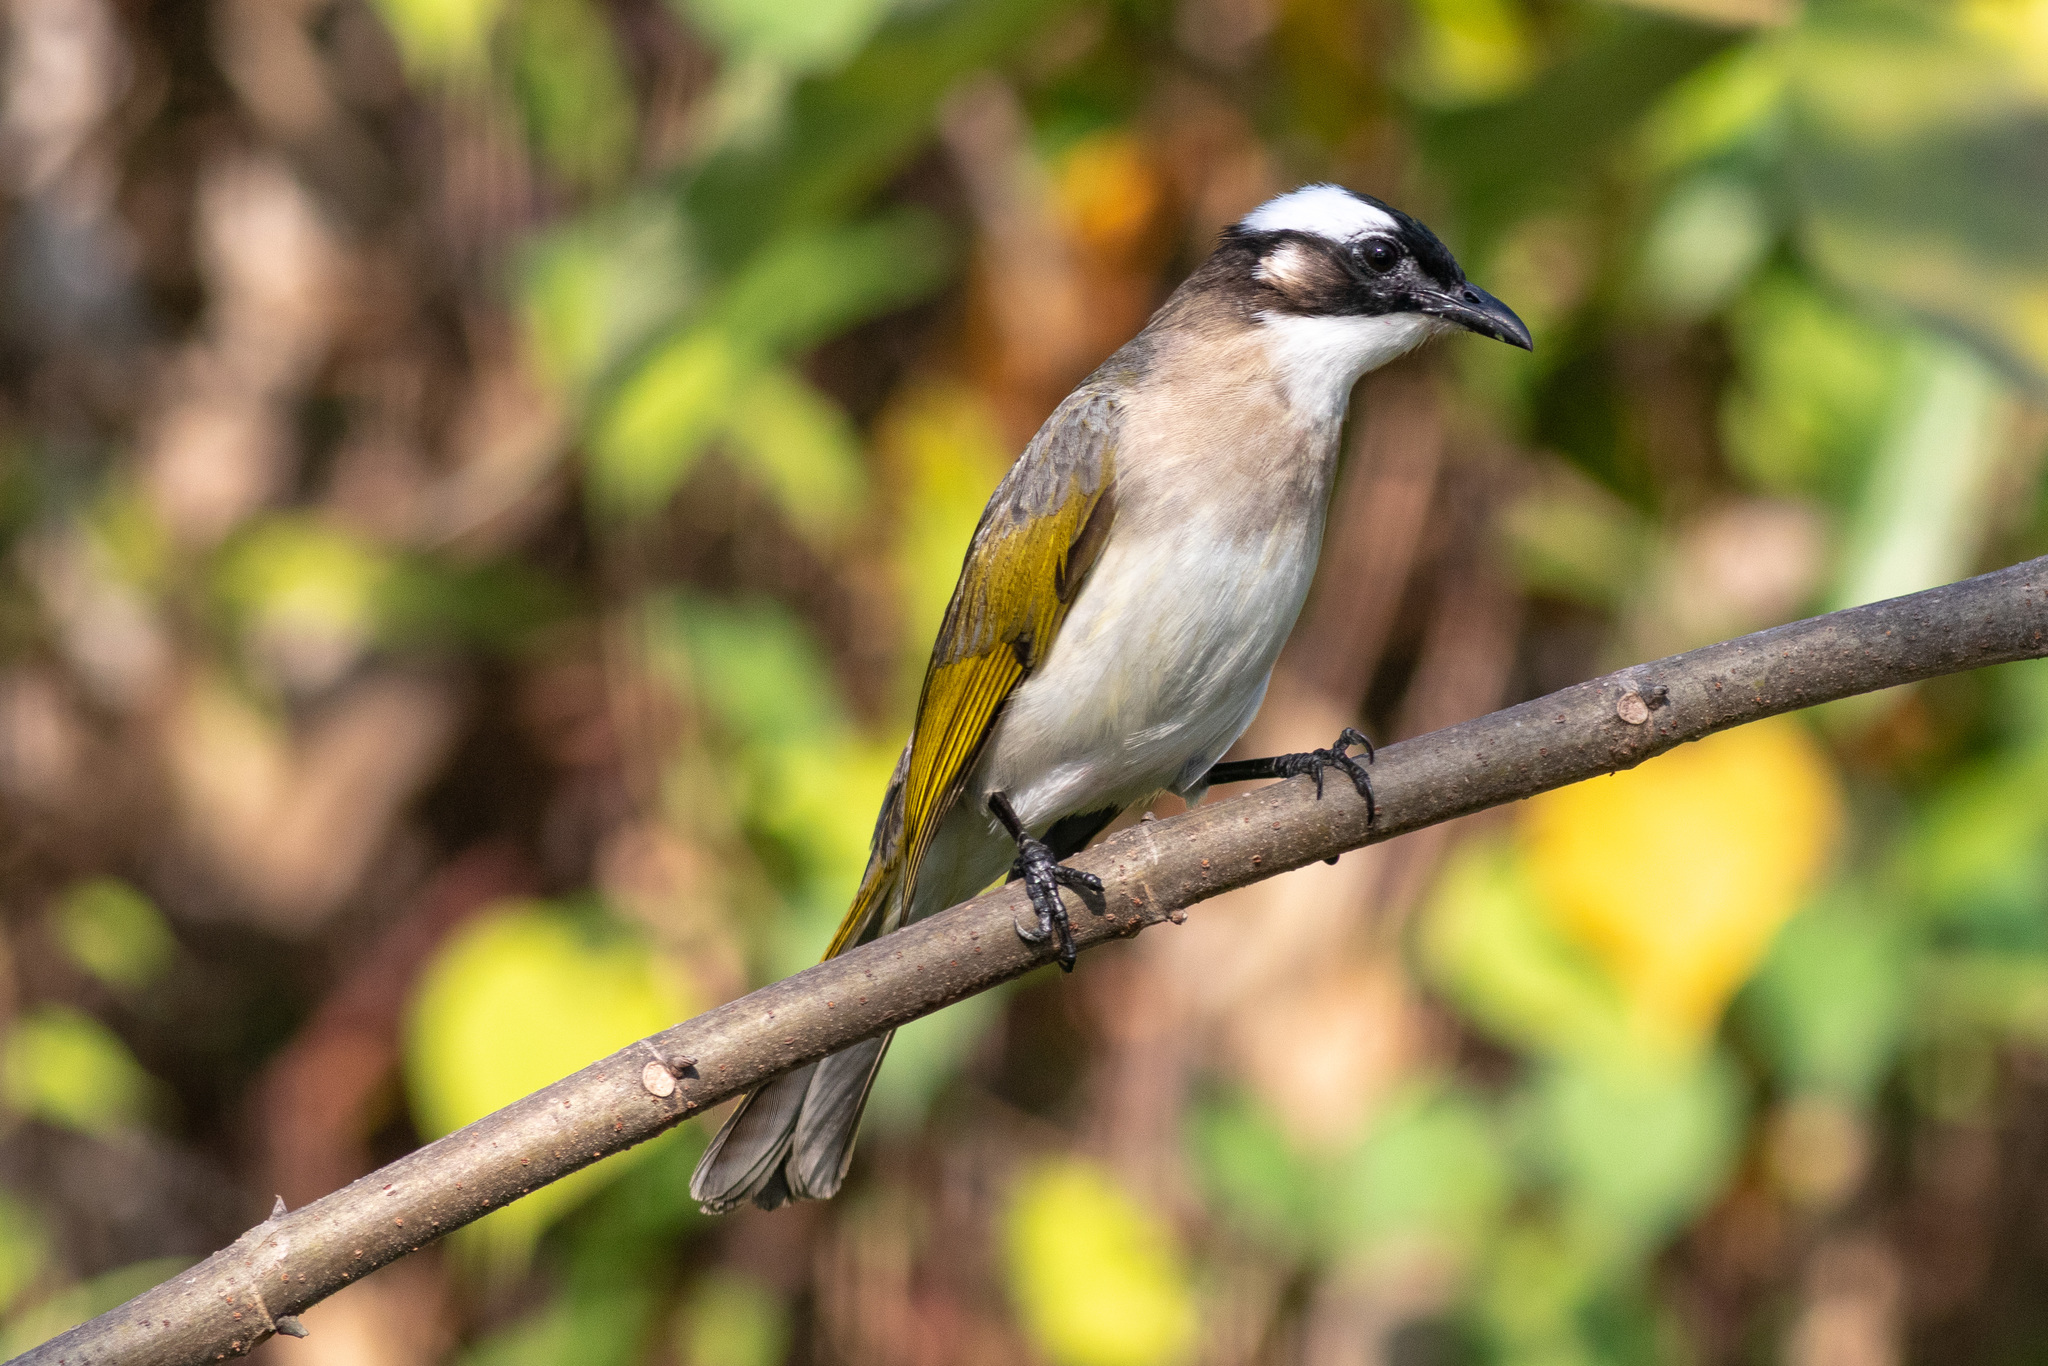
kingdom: Animalia
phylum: Chordata
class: Aves
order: Passeriformes
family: Pycnonotidae
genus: Pycnonotus
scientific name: Pycnonotus sinensis
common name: Light-vented bulbul
